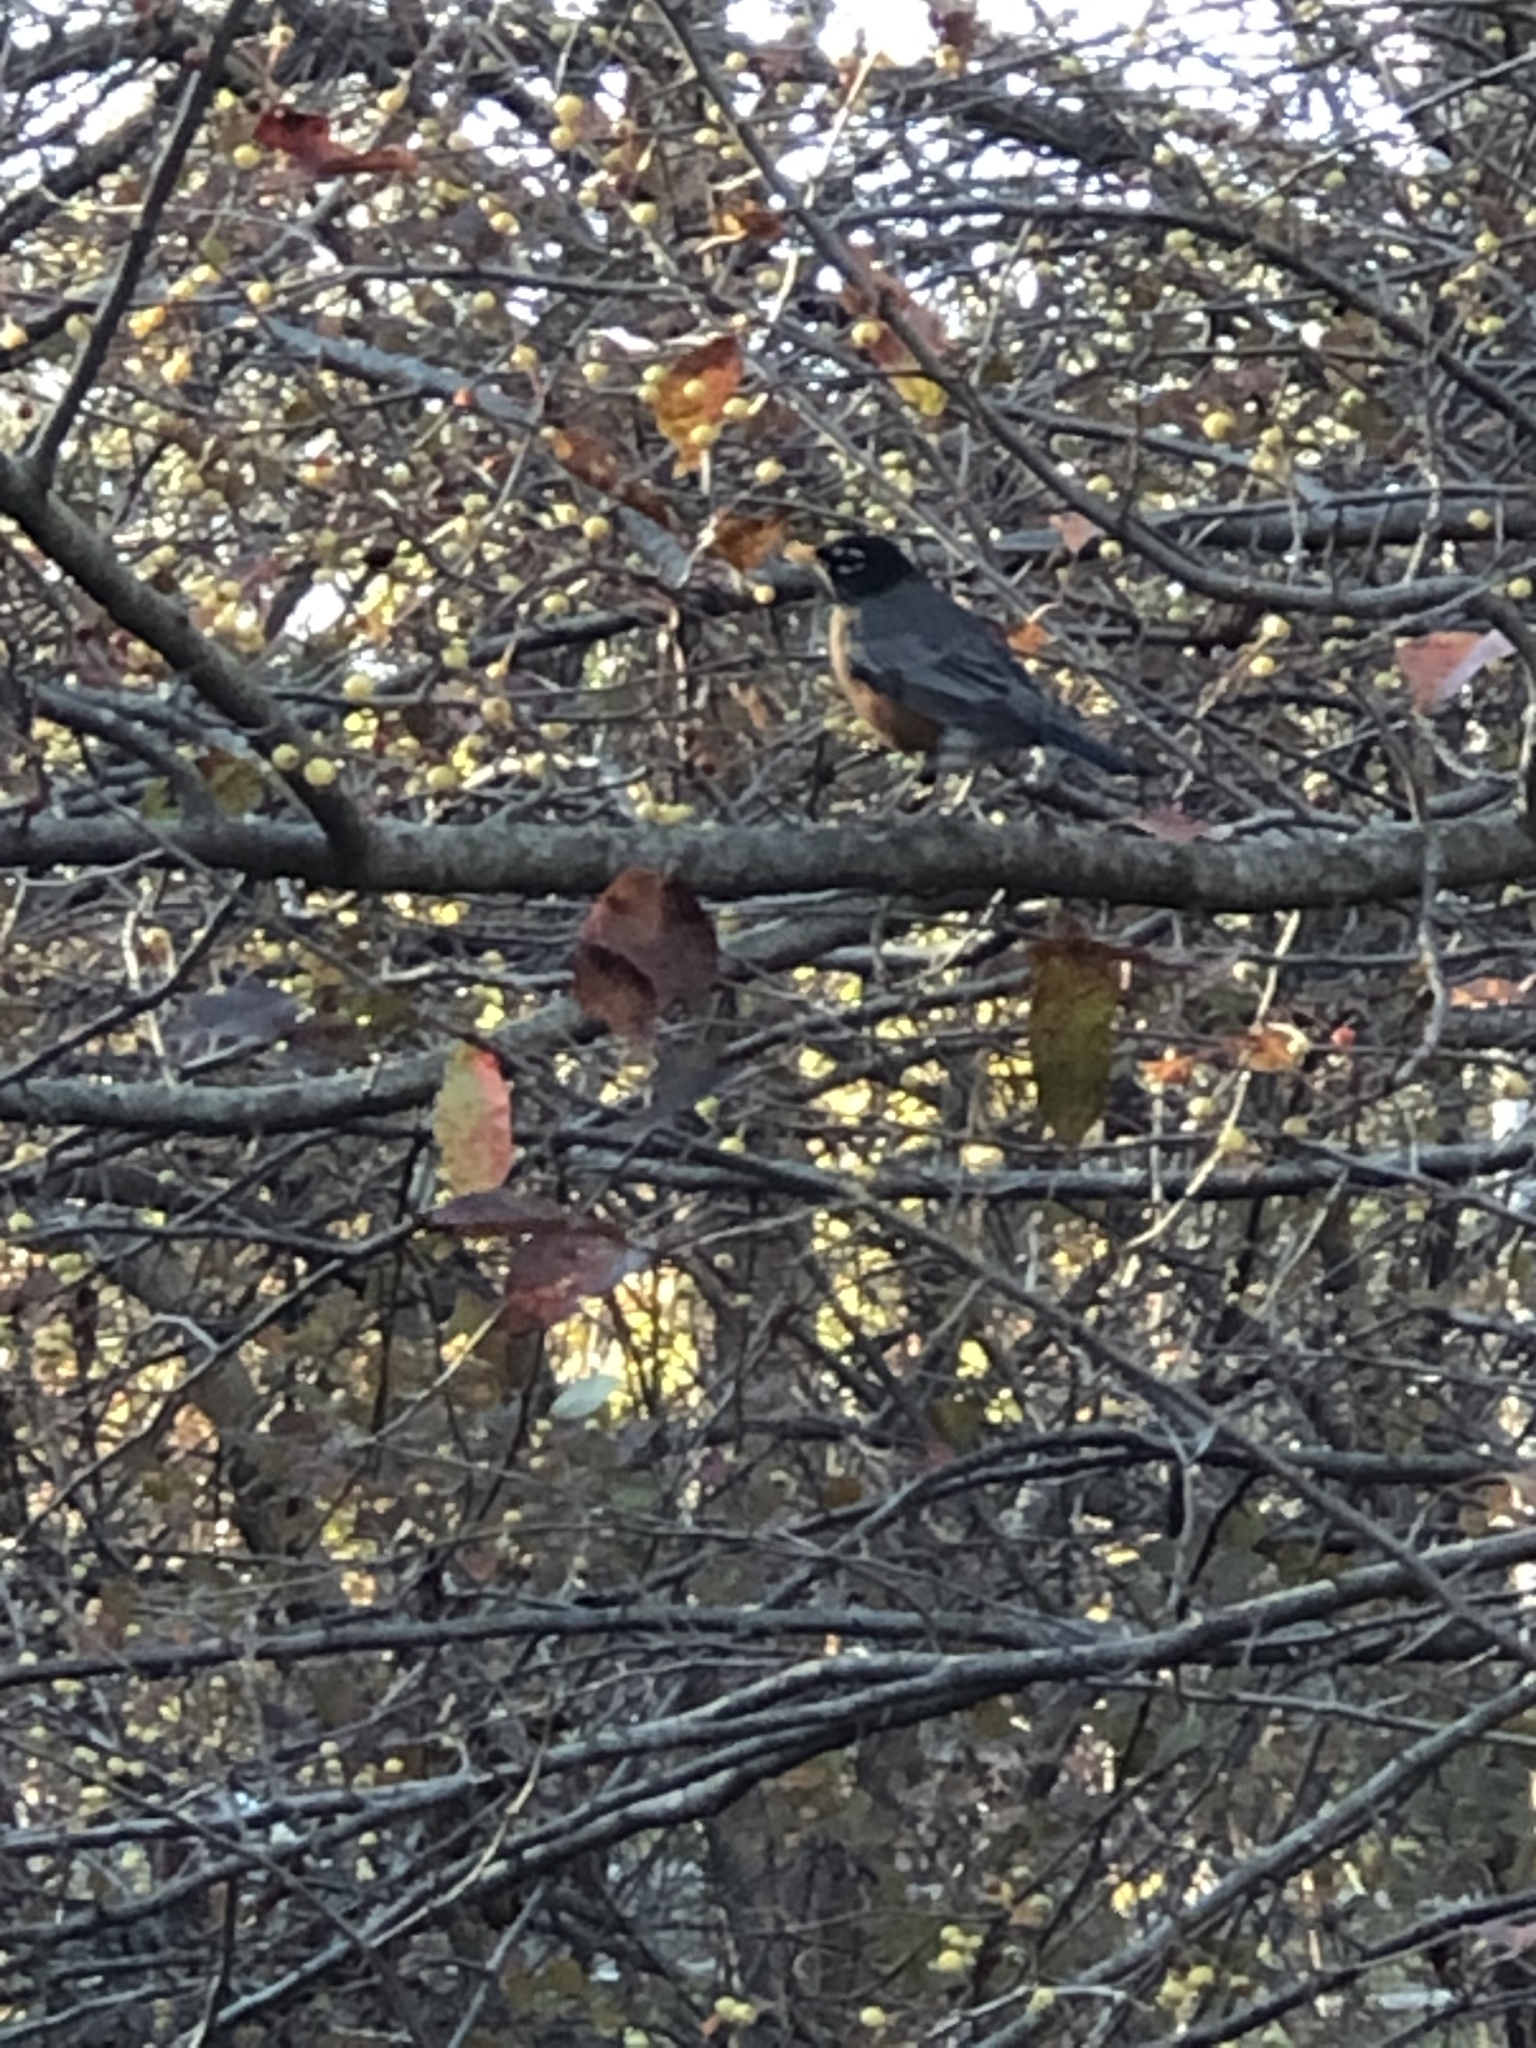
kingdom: Animalia
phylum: Chordata
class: Aves
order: Passeriformes
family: Turdidae
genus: Turdus
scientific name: Turdus migratorius
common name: American robin
